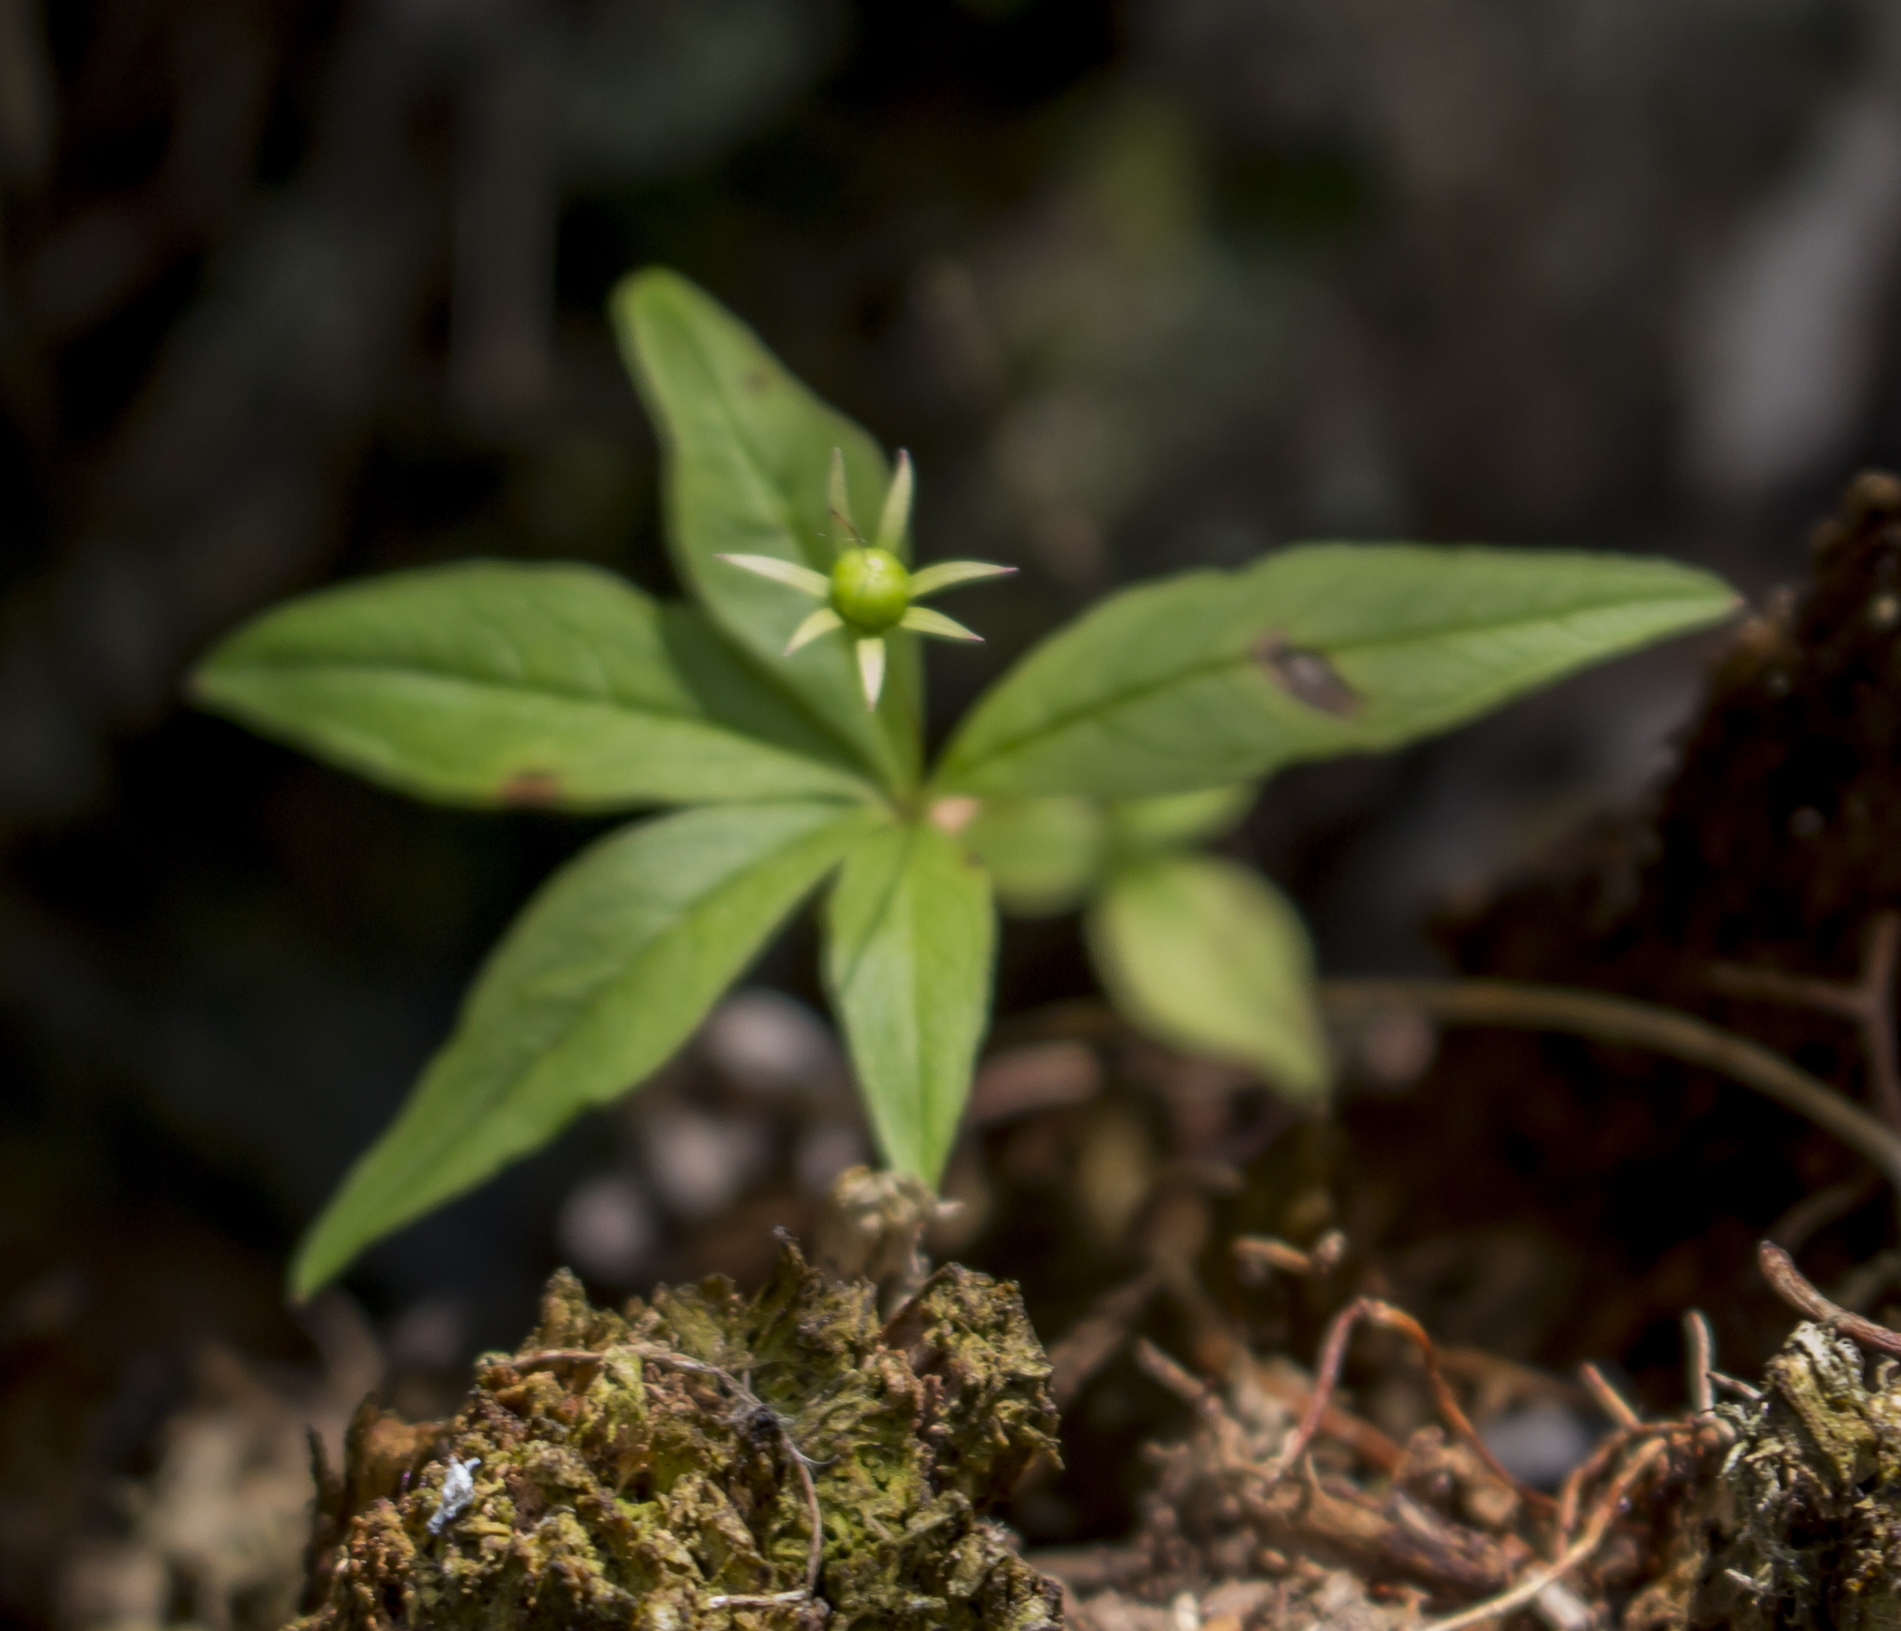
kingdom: Plantae
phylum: Tracheophyta
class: Magnoliopsida
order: Ericales
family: Primulaceae
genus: Lysimachia
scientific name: Lysimachia borealis
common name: American starflower
